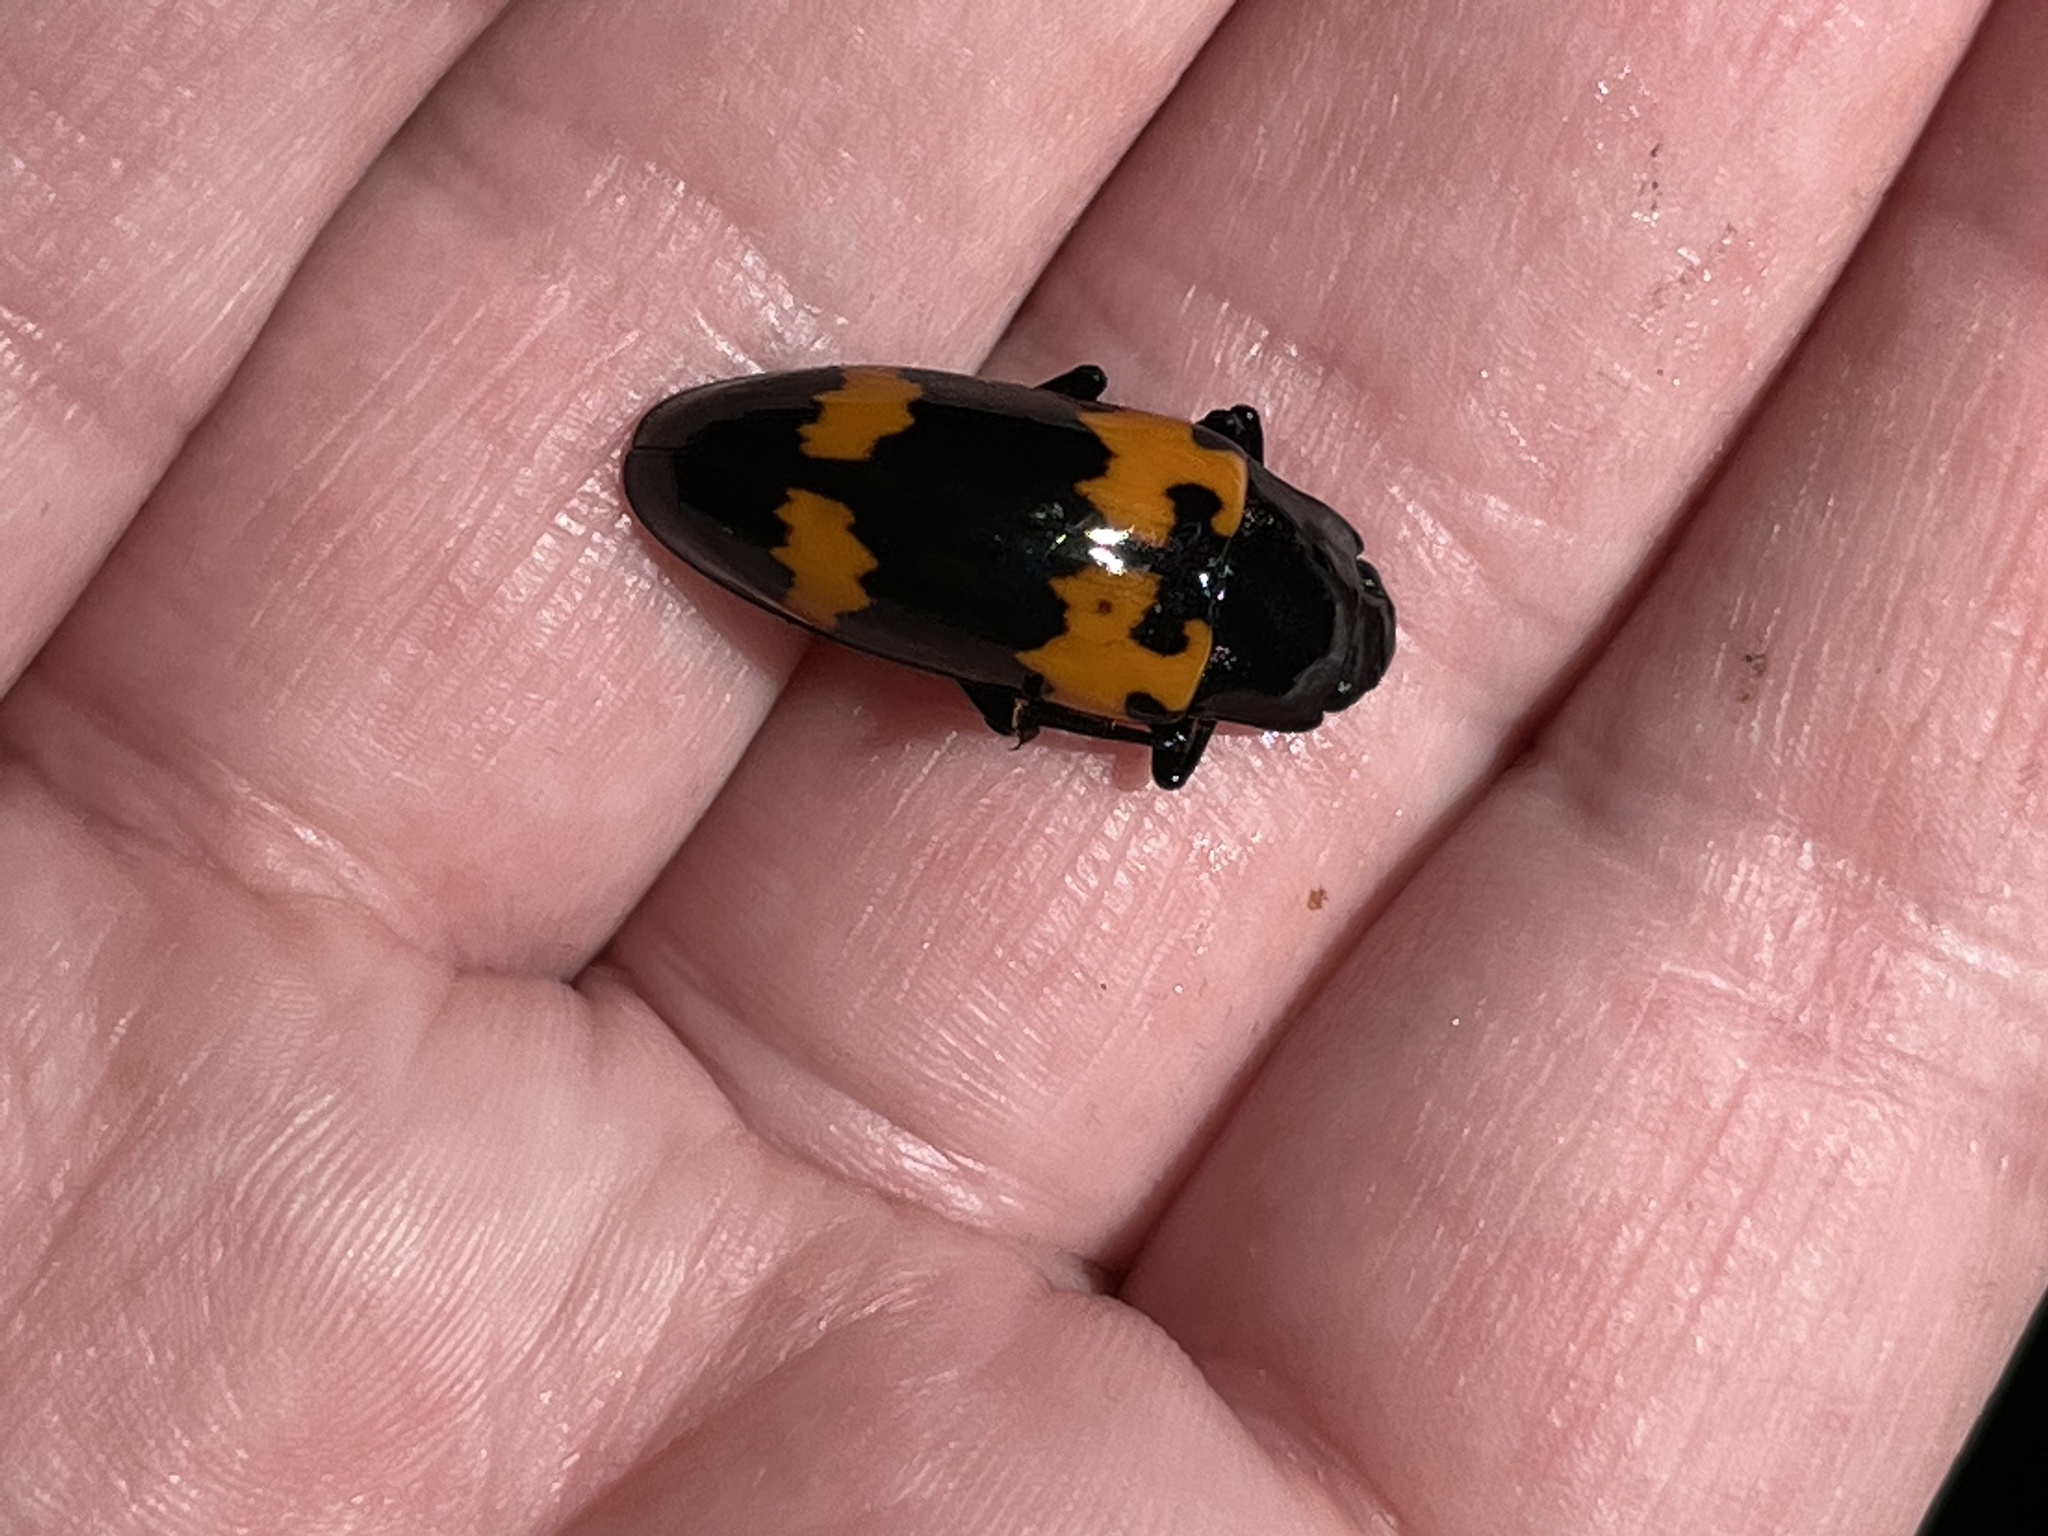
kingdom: Animalia
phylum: Arthropoda
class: Insecta
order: Coleoptera
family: Erotylidae
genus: Megalodacne
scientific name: Megalodacne heros
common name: Pleasing fungus beetle
